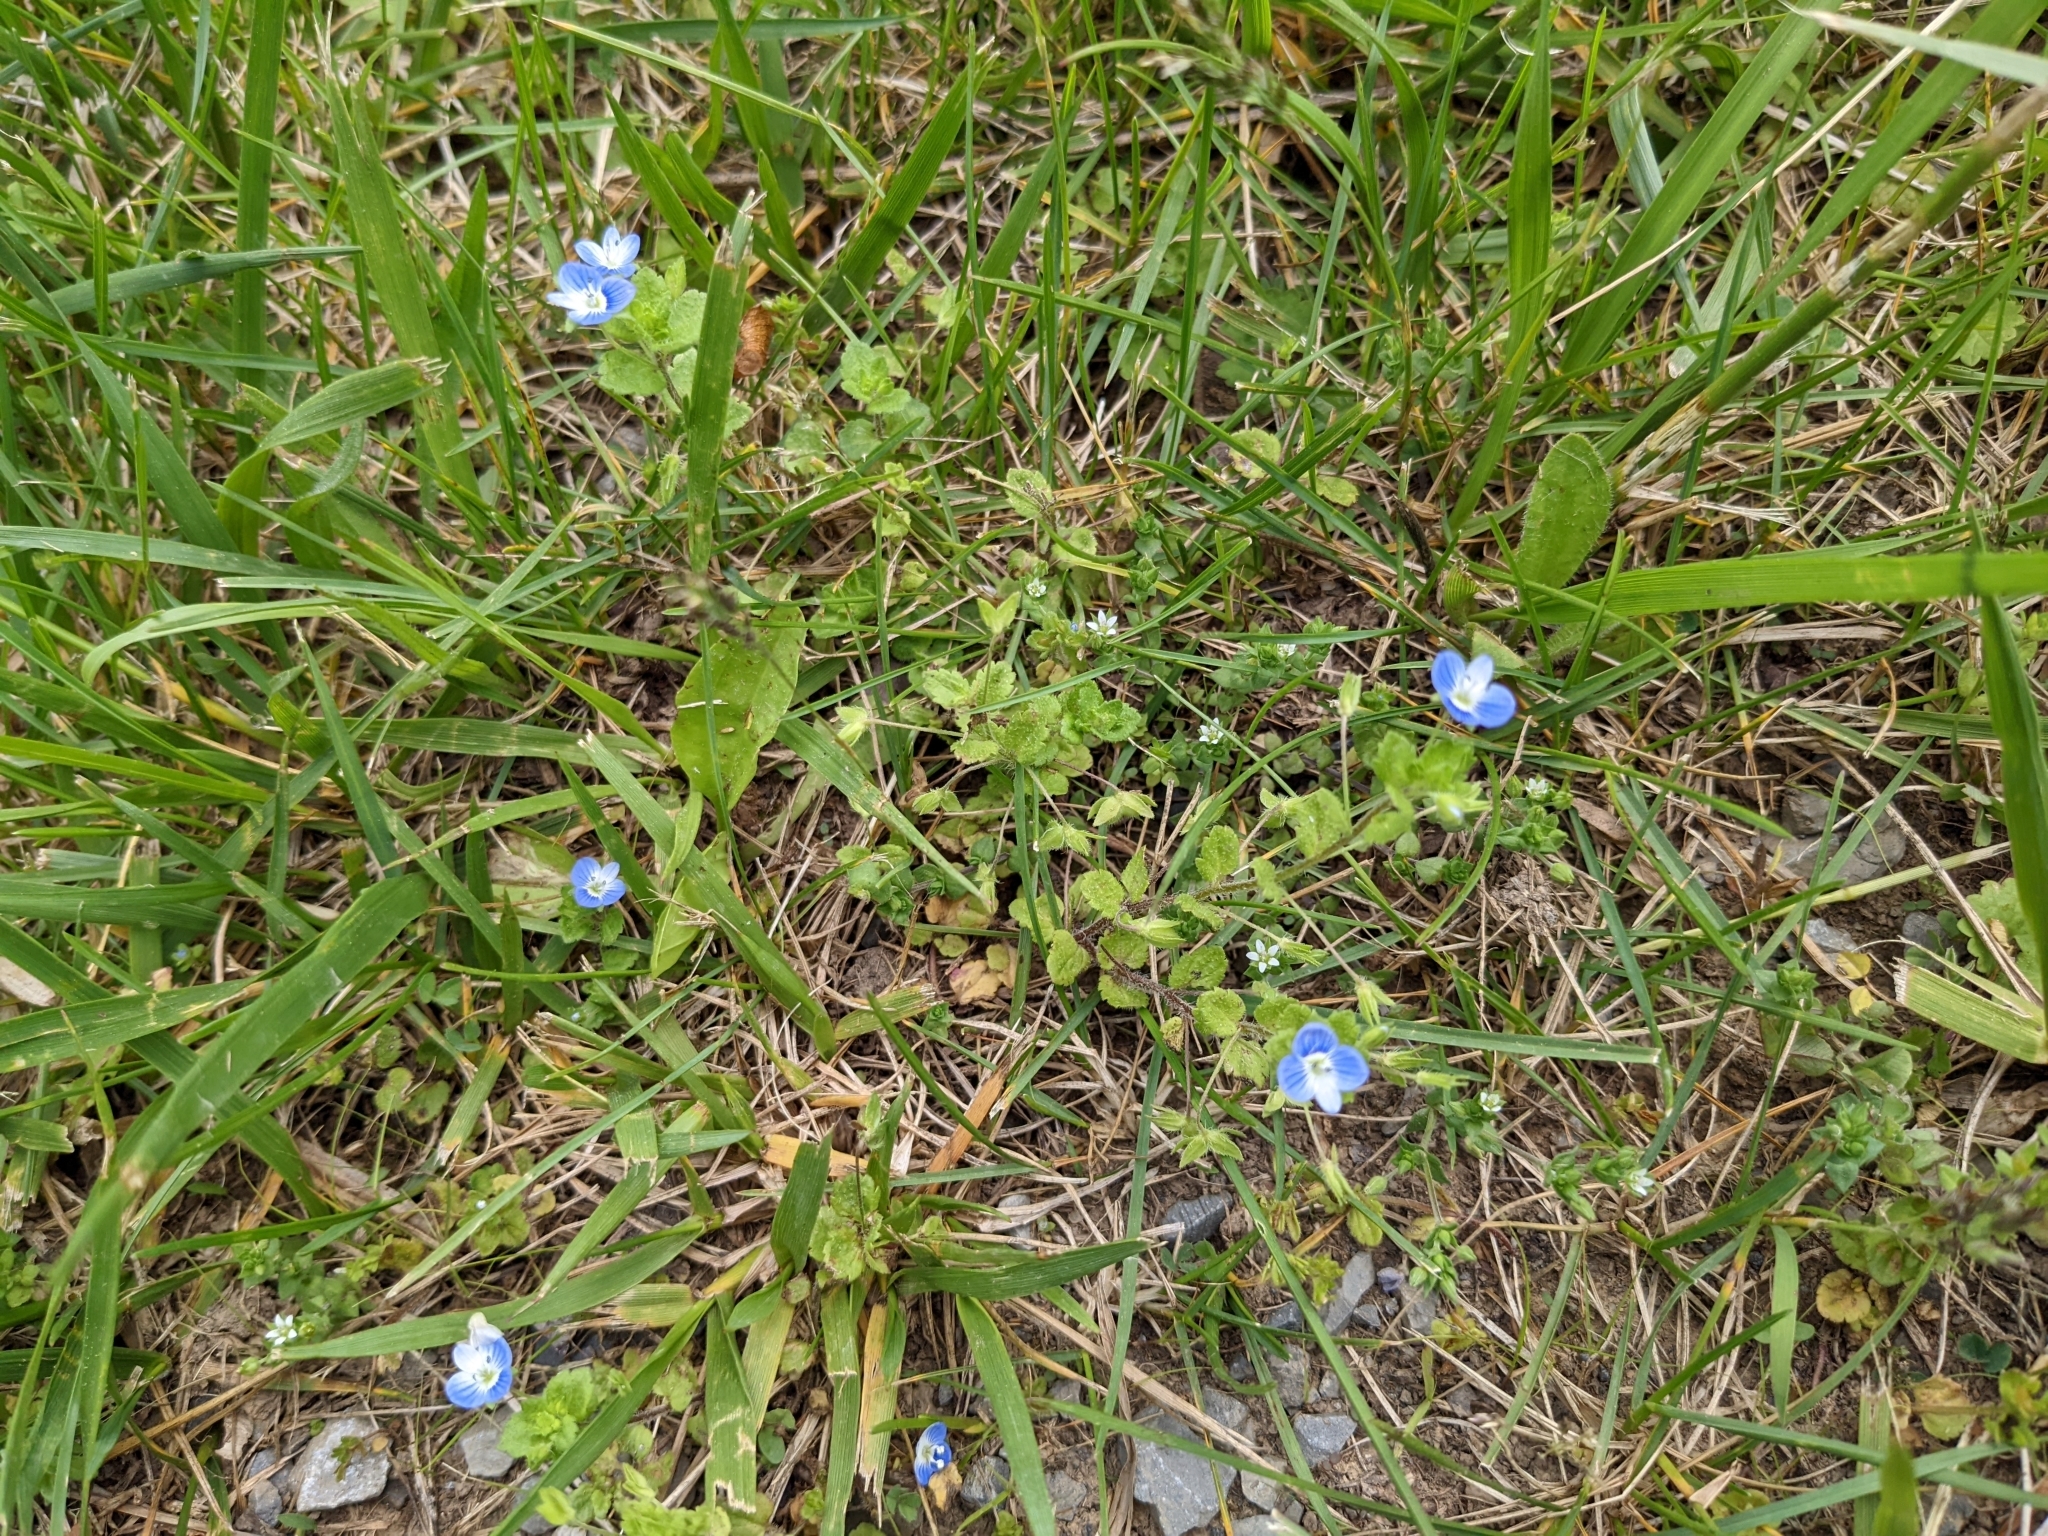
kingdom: Plantae
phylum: Tracheophyta
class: Magnoliopsida
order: Lamiales
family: Plantaginaceae
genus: Veronica
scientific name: Veronica persica
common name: Common field-speedwell
